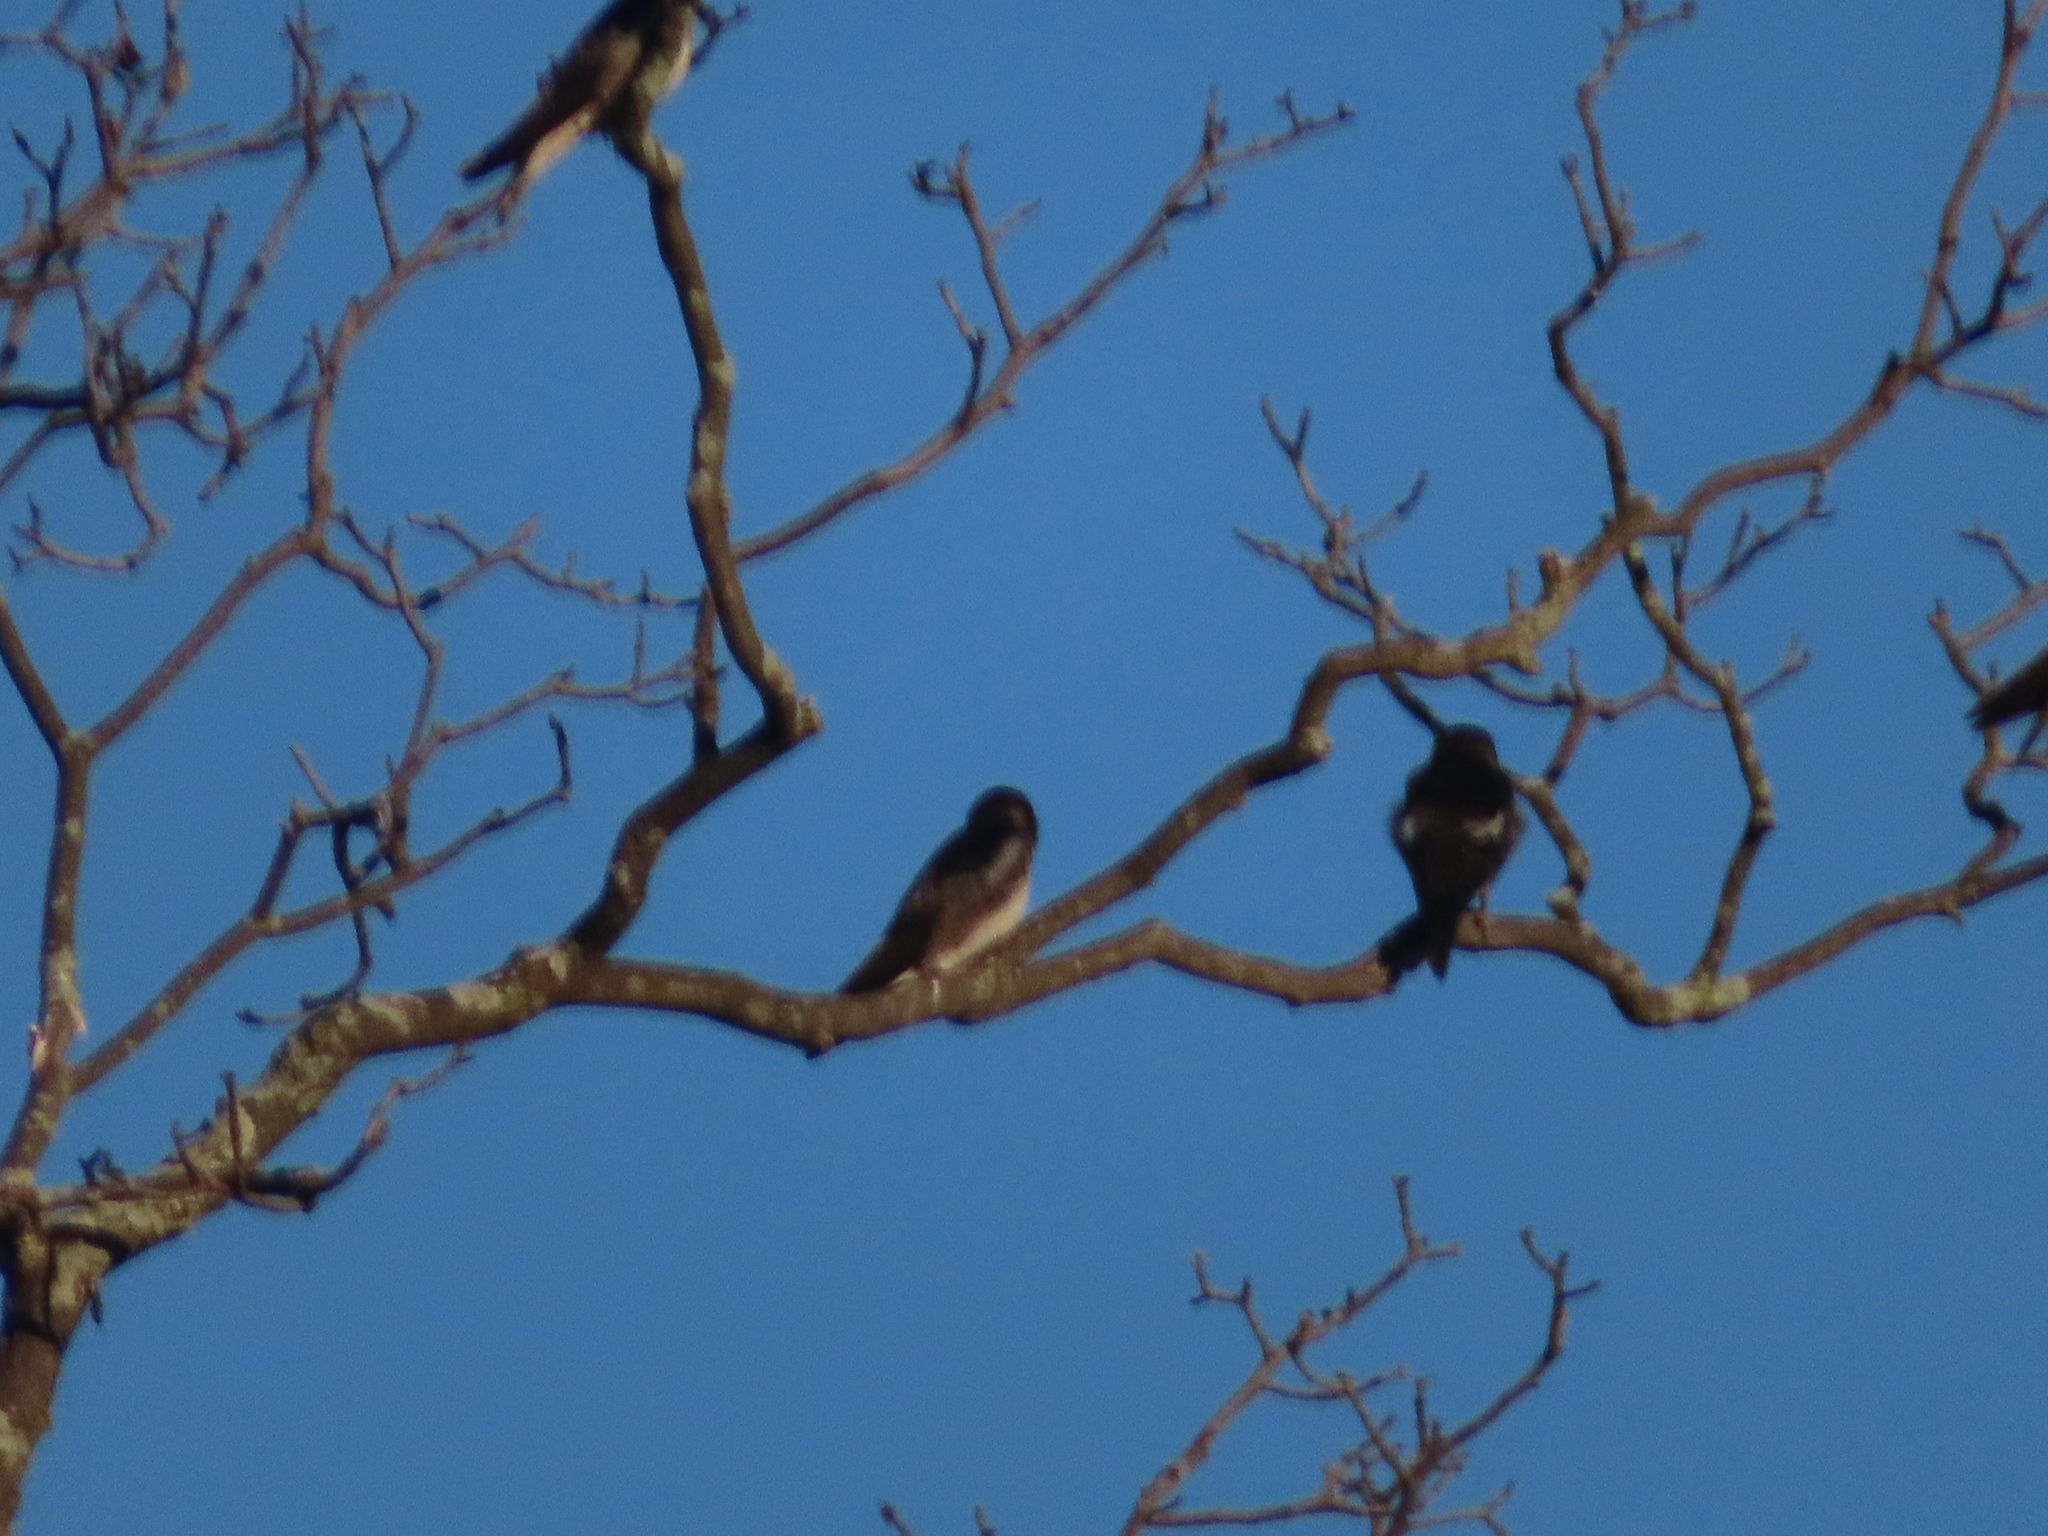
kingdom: Animalia
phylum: Chordata
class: Aves
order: Passeriformes
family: Hirundinidae
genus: Hirundo
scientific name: Hirundo rustica
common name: Barn swallow
